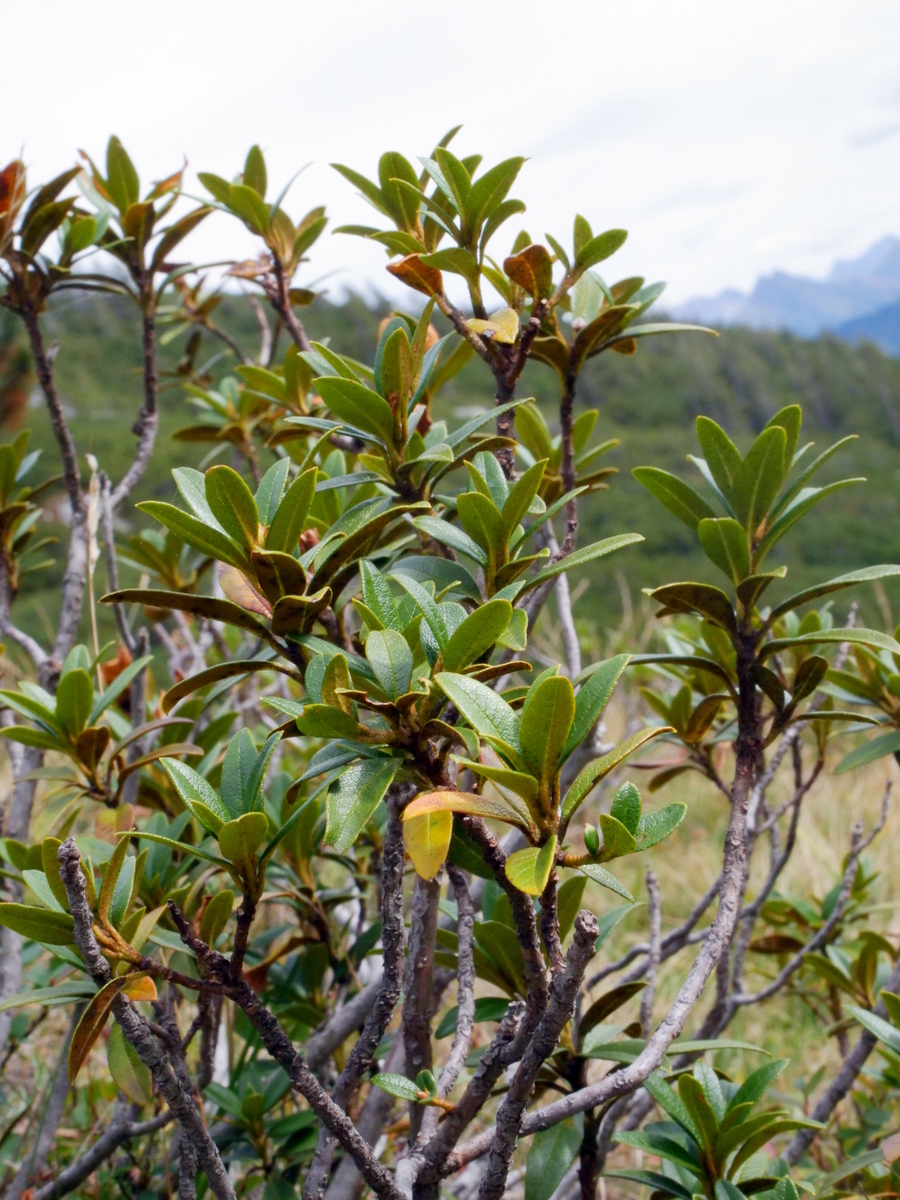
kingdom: Plantae
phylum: Tracheophyta
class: Magnoliopsida
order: Ericales
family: Ericaceae
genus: Rhododendron
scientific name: Rhododendron ferrugineum
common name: Alpenrose
